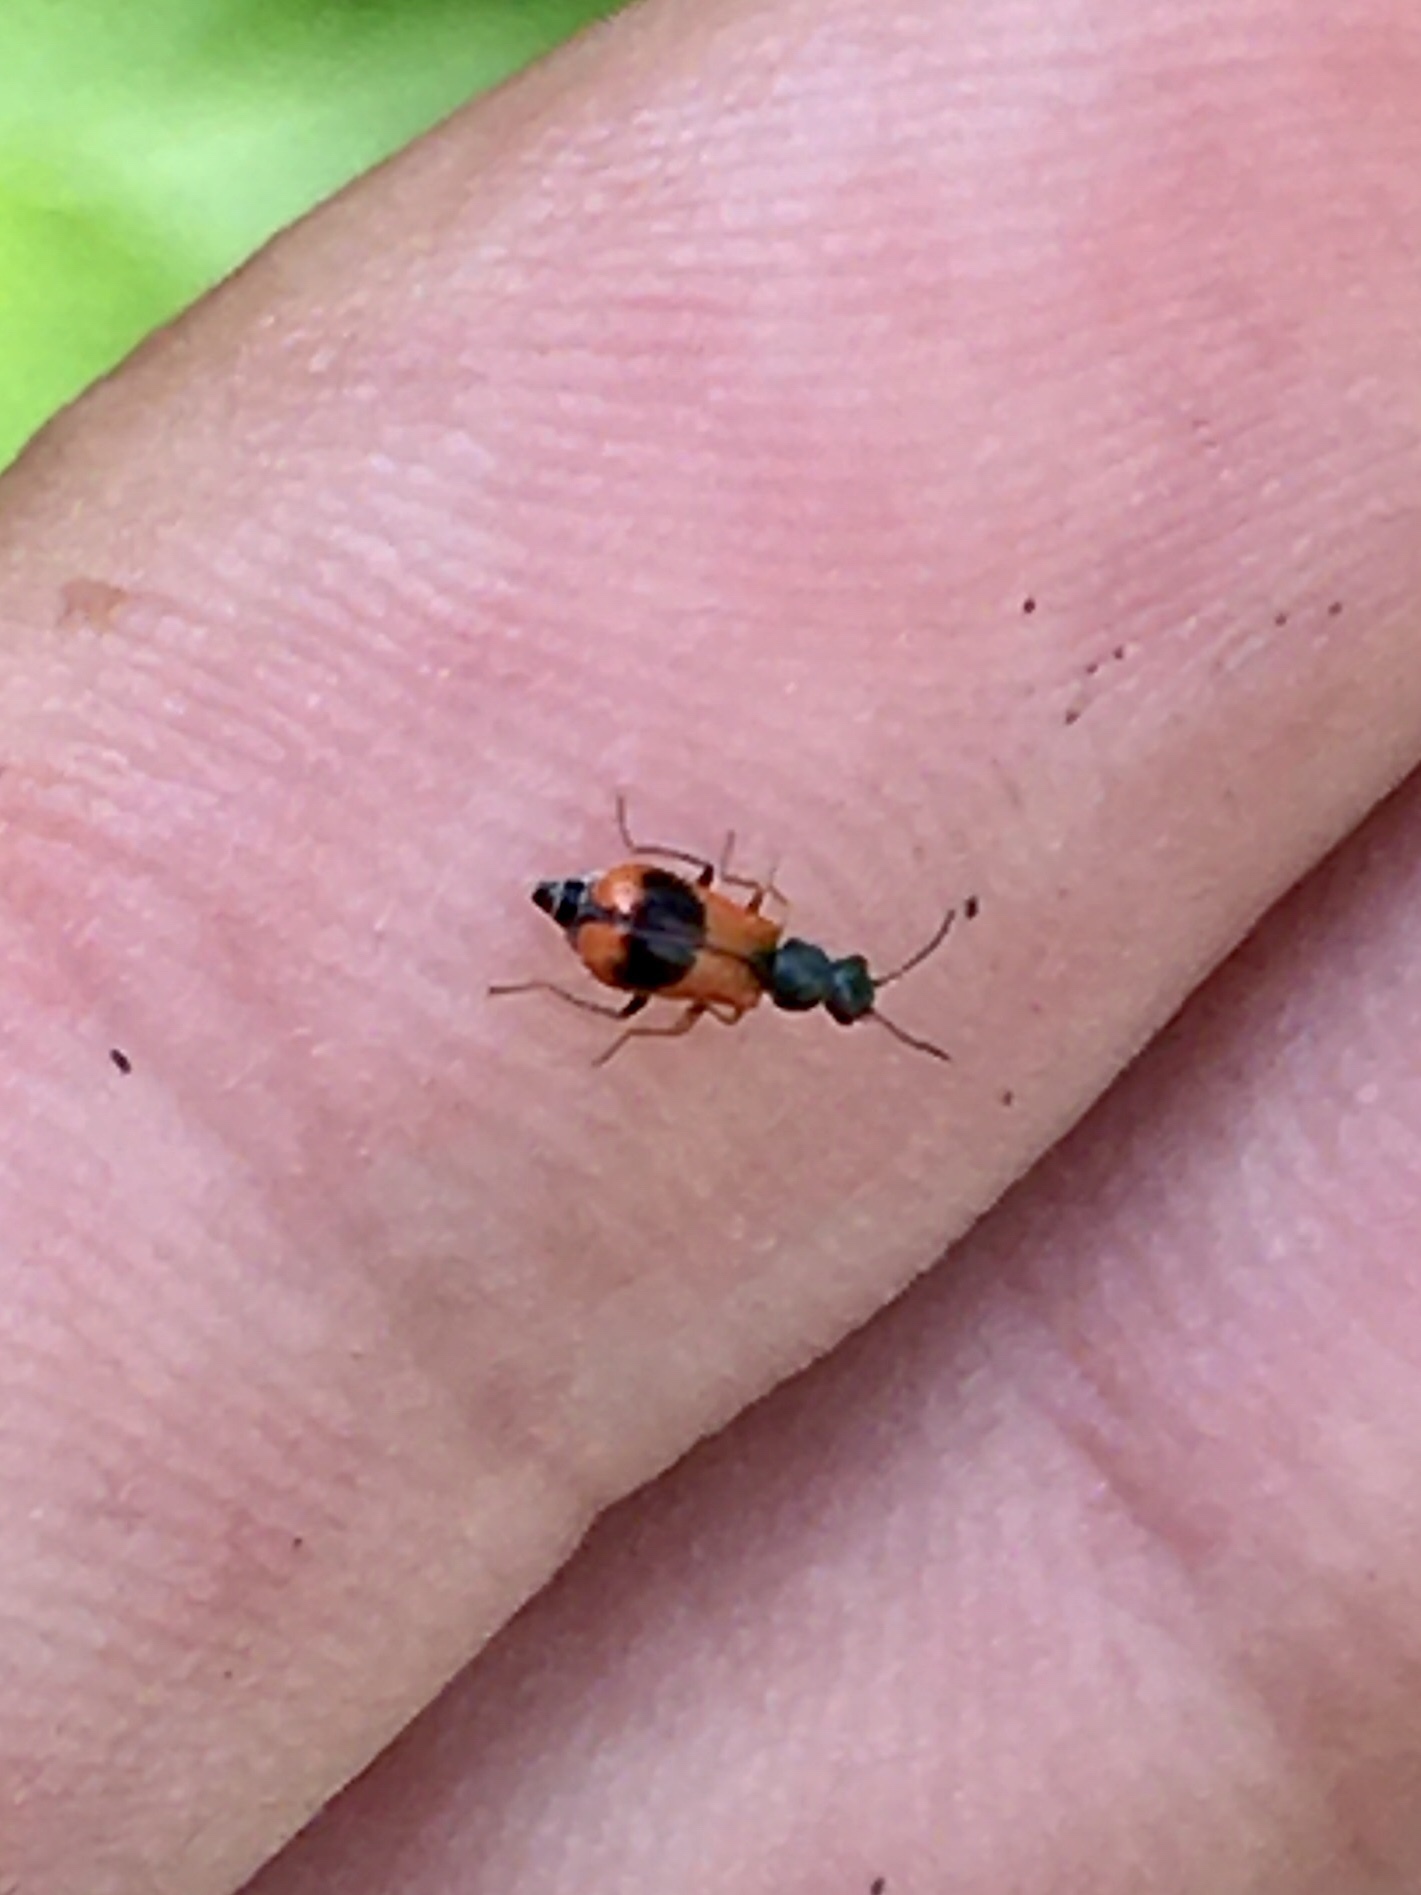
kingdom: Animalia
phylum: Arthropoda
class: Insecta
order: Coleoptera
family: Melyridae
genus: Anthocomus
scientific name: Anthocomus equestris
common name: Black-banded soft-winged flower beetle
